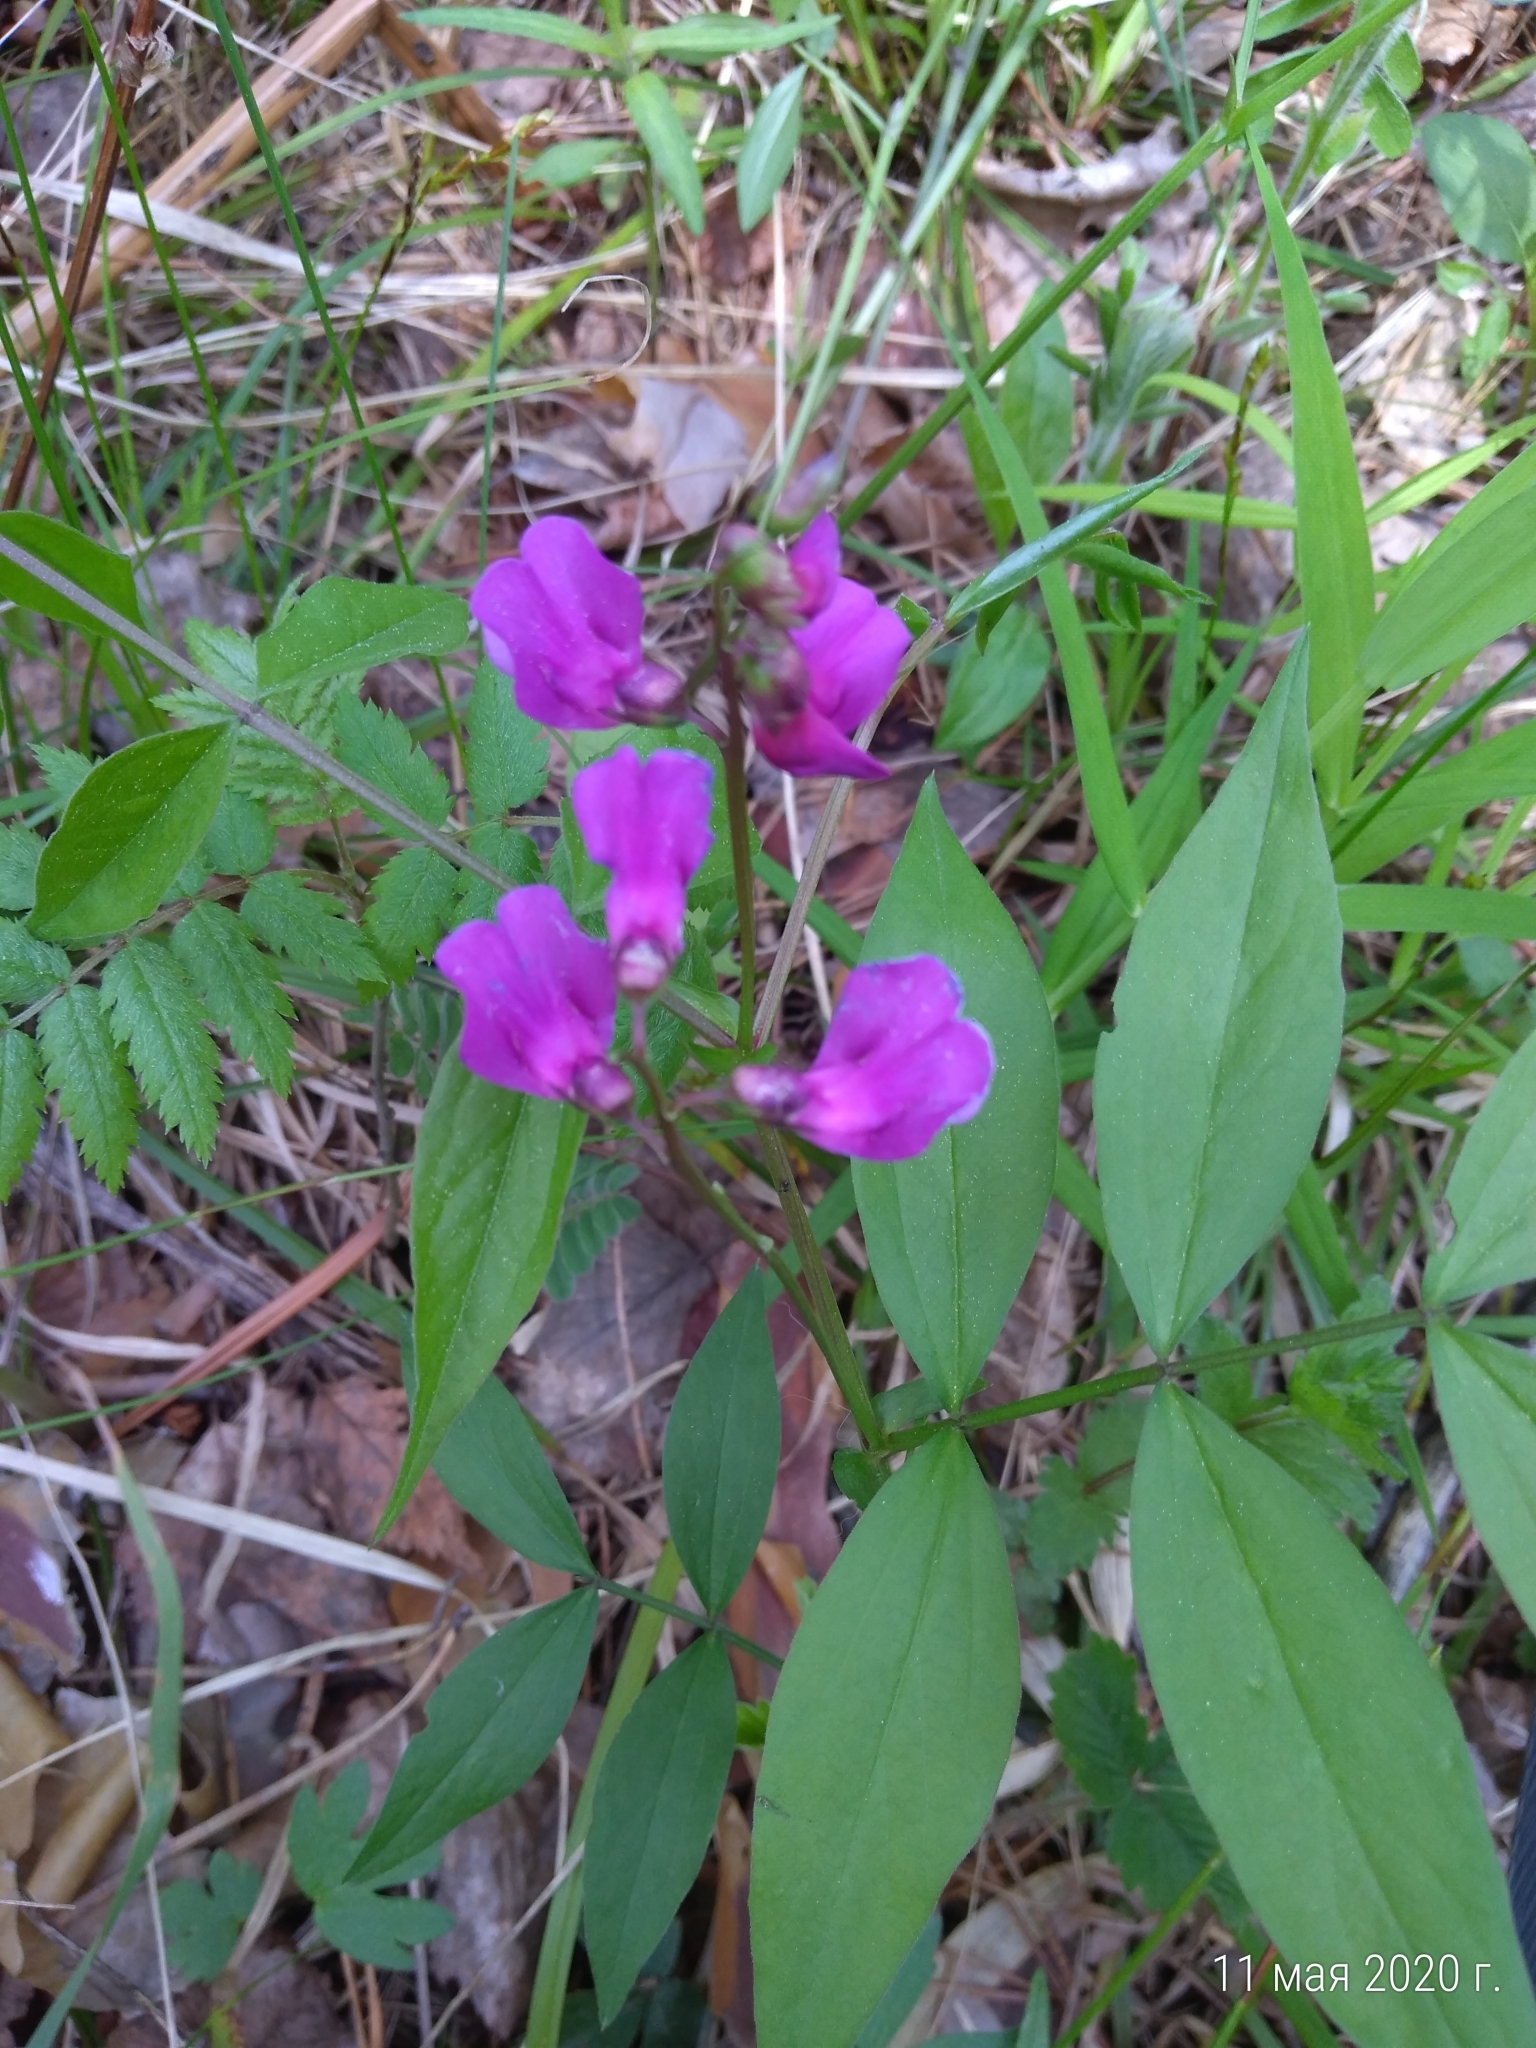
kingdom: Plantae
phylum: Tracheophyta
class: Magnoliopsida
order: Fabales
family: Fabaceae
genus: Lathyrus
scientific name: Lathyrus vernus
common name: Spring pea
